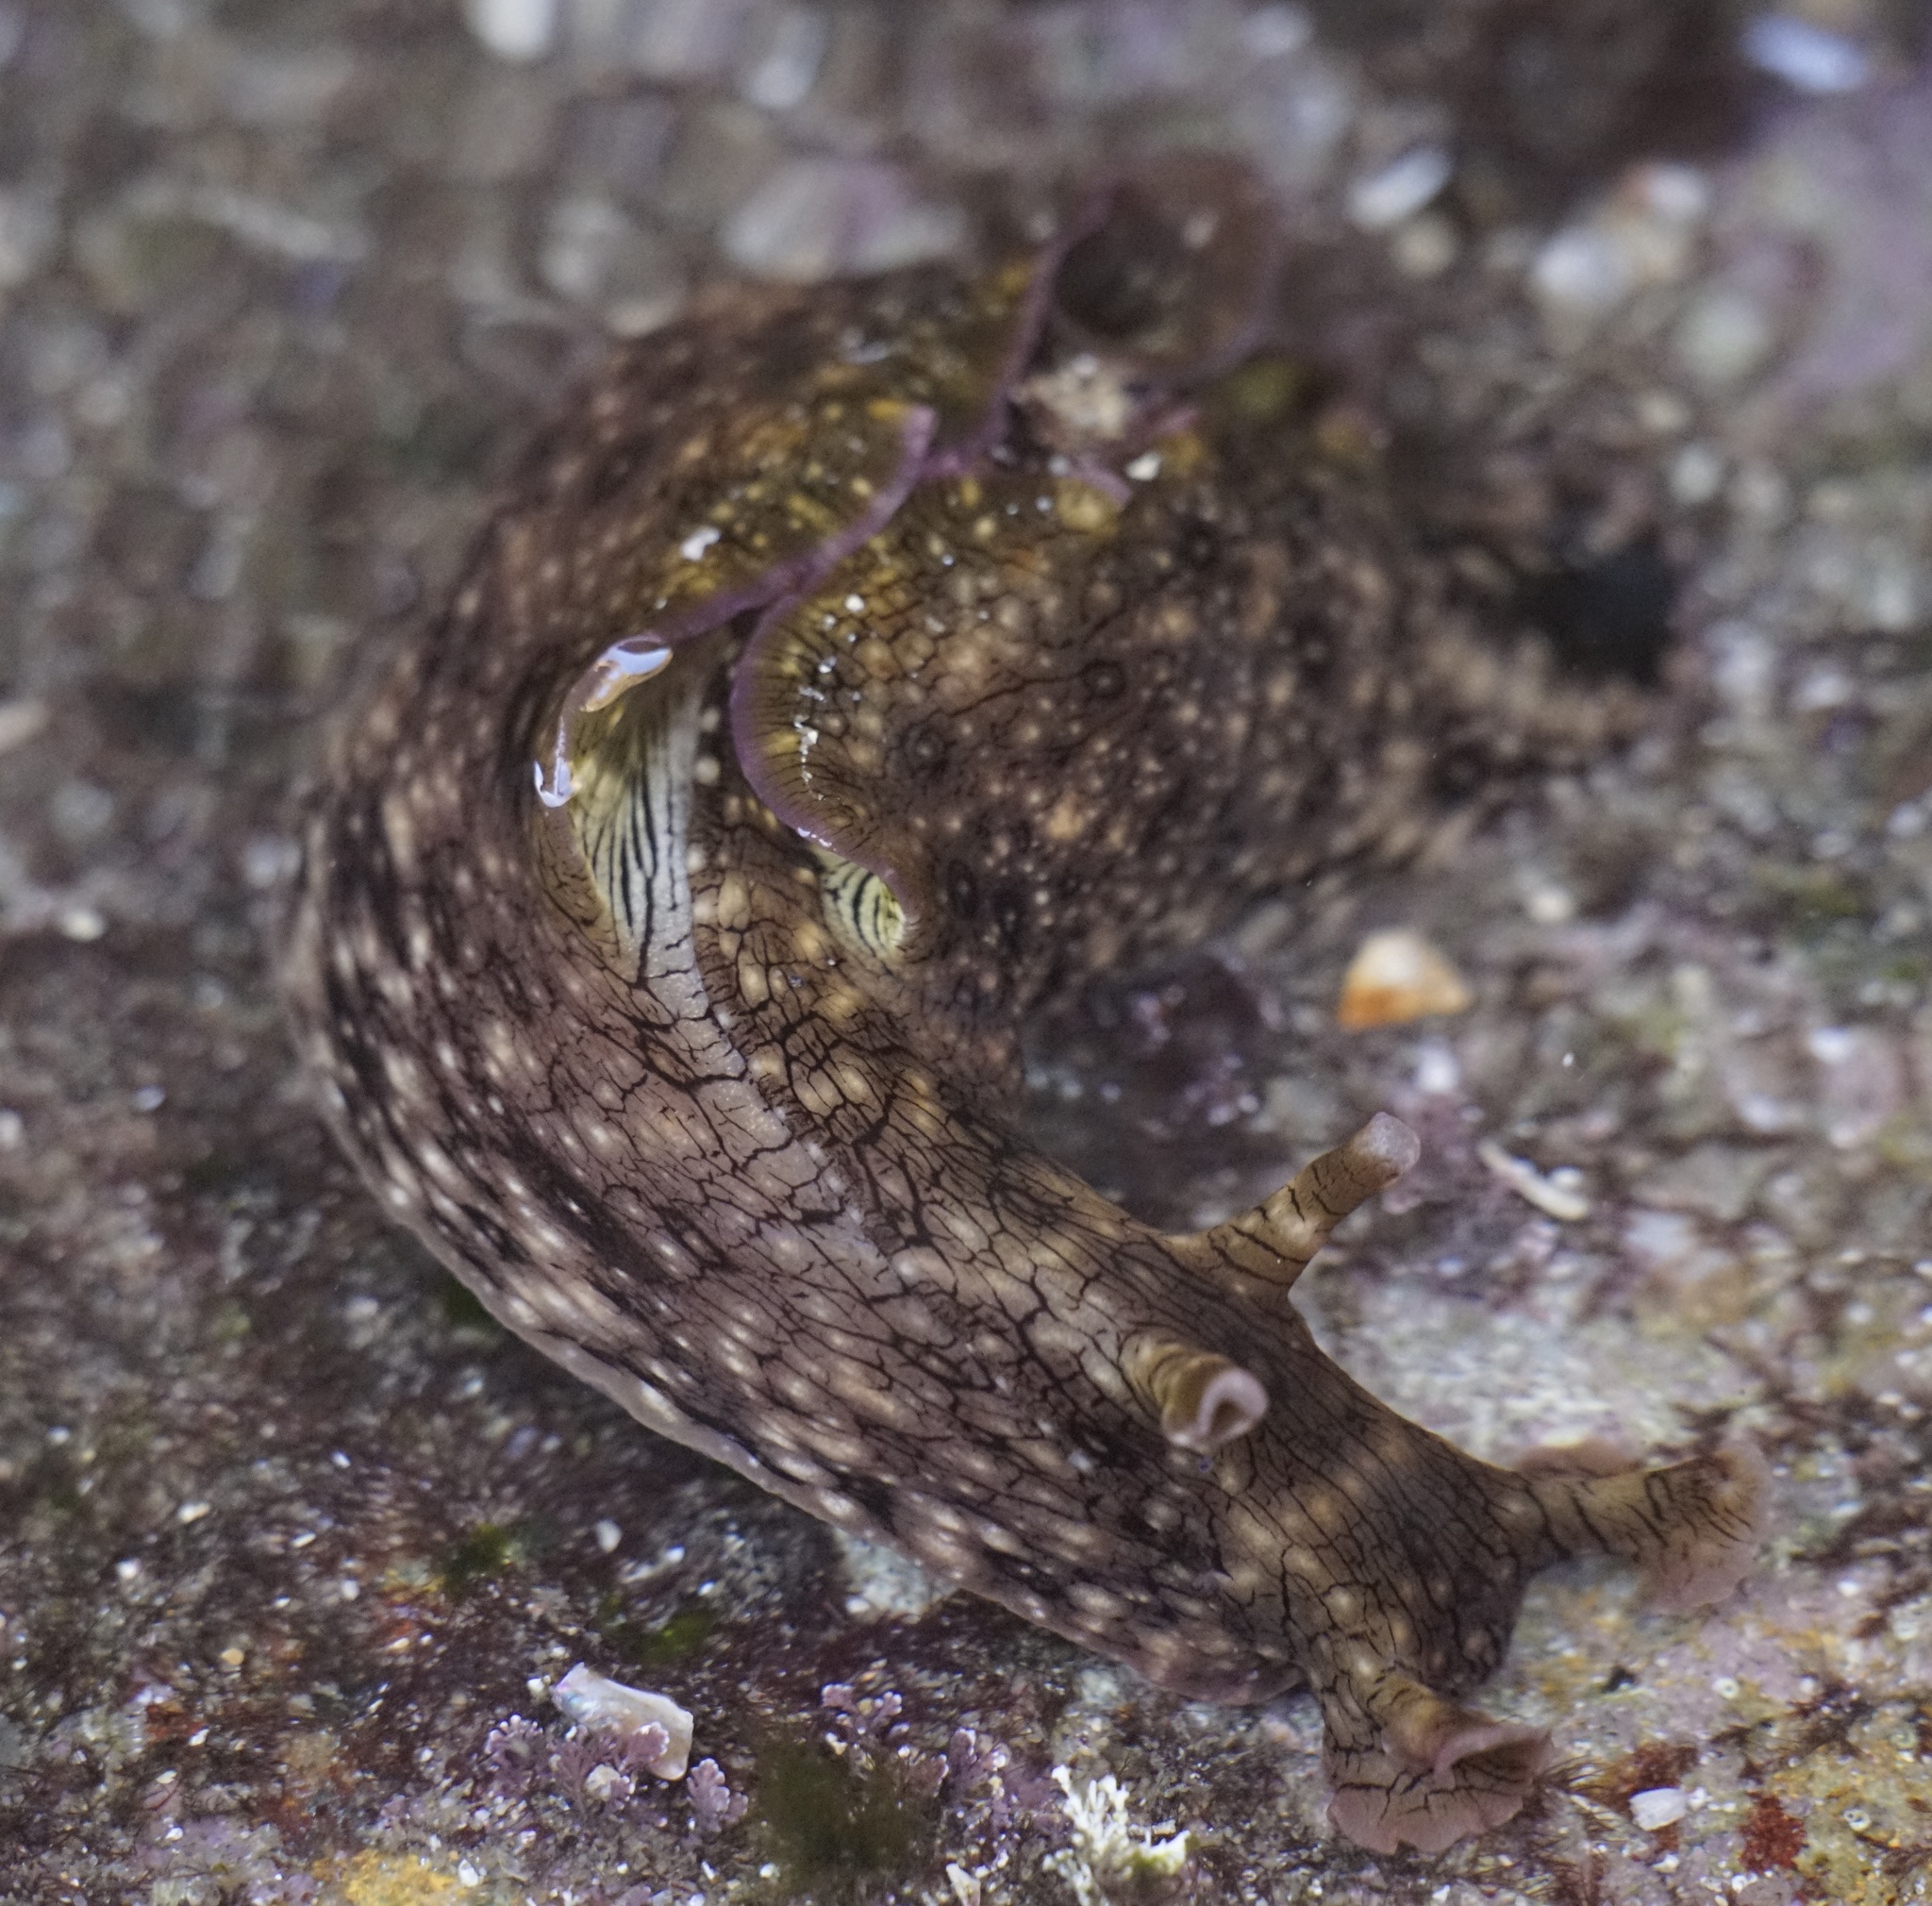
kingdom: Animalia
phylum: Mollusca
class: Gastropoda
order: Aplysiida
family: Aplysiidae
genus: Aplysia
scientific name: Aplysia argus
